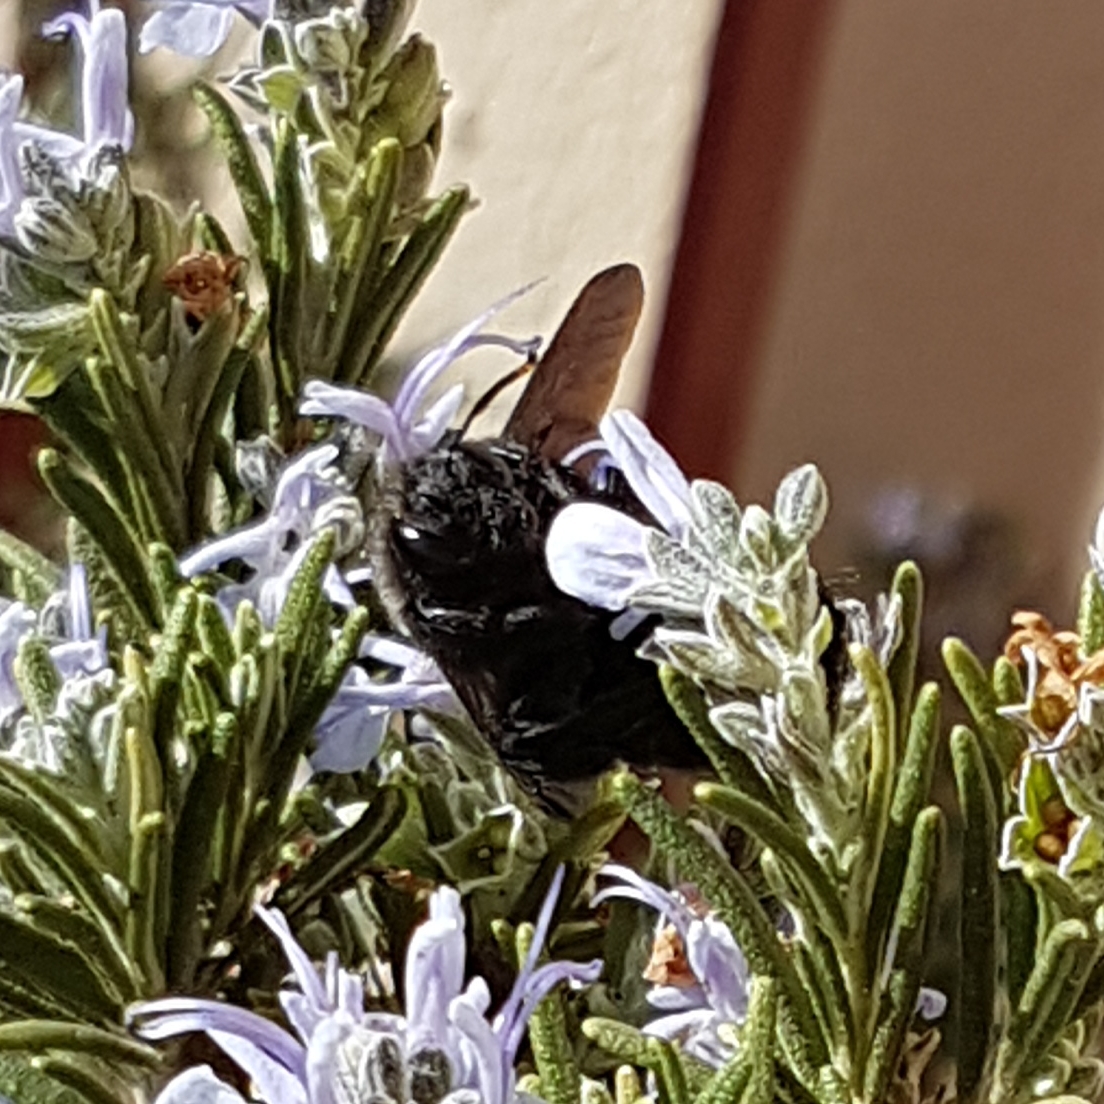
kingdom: Animalia
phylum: Arthropoda
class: Insecta
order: Hymenoptera
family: Apidae
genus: Xylocopa
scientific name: Xylocopa violacea
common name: Violet carpenter bee
